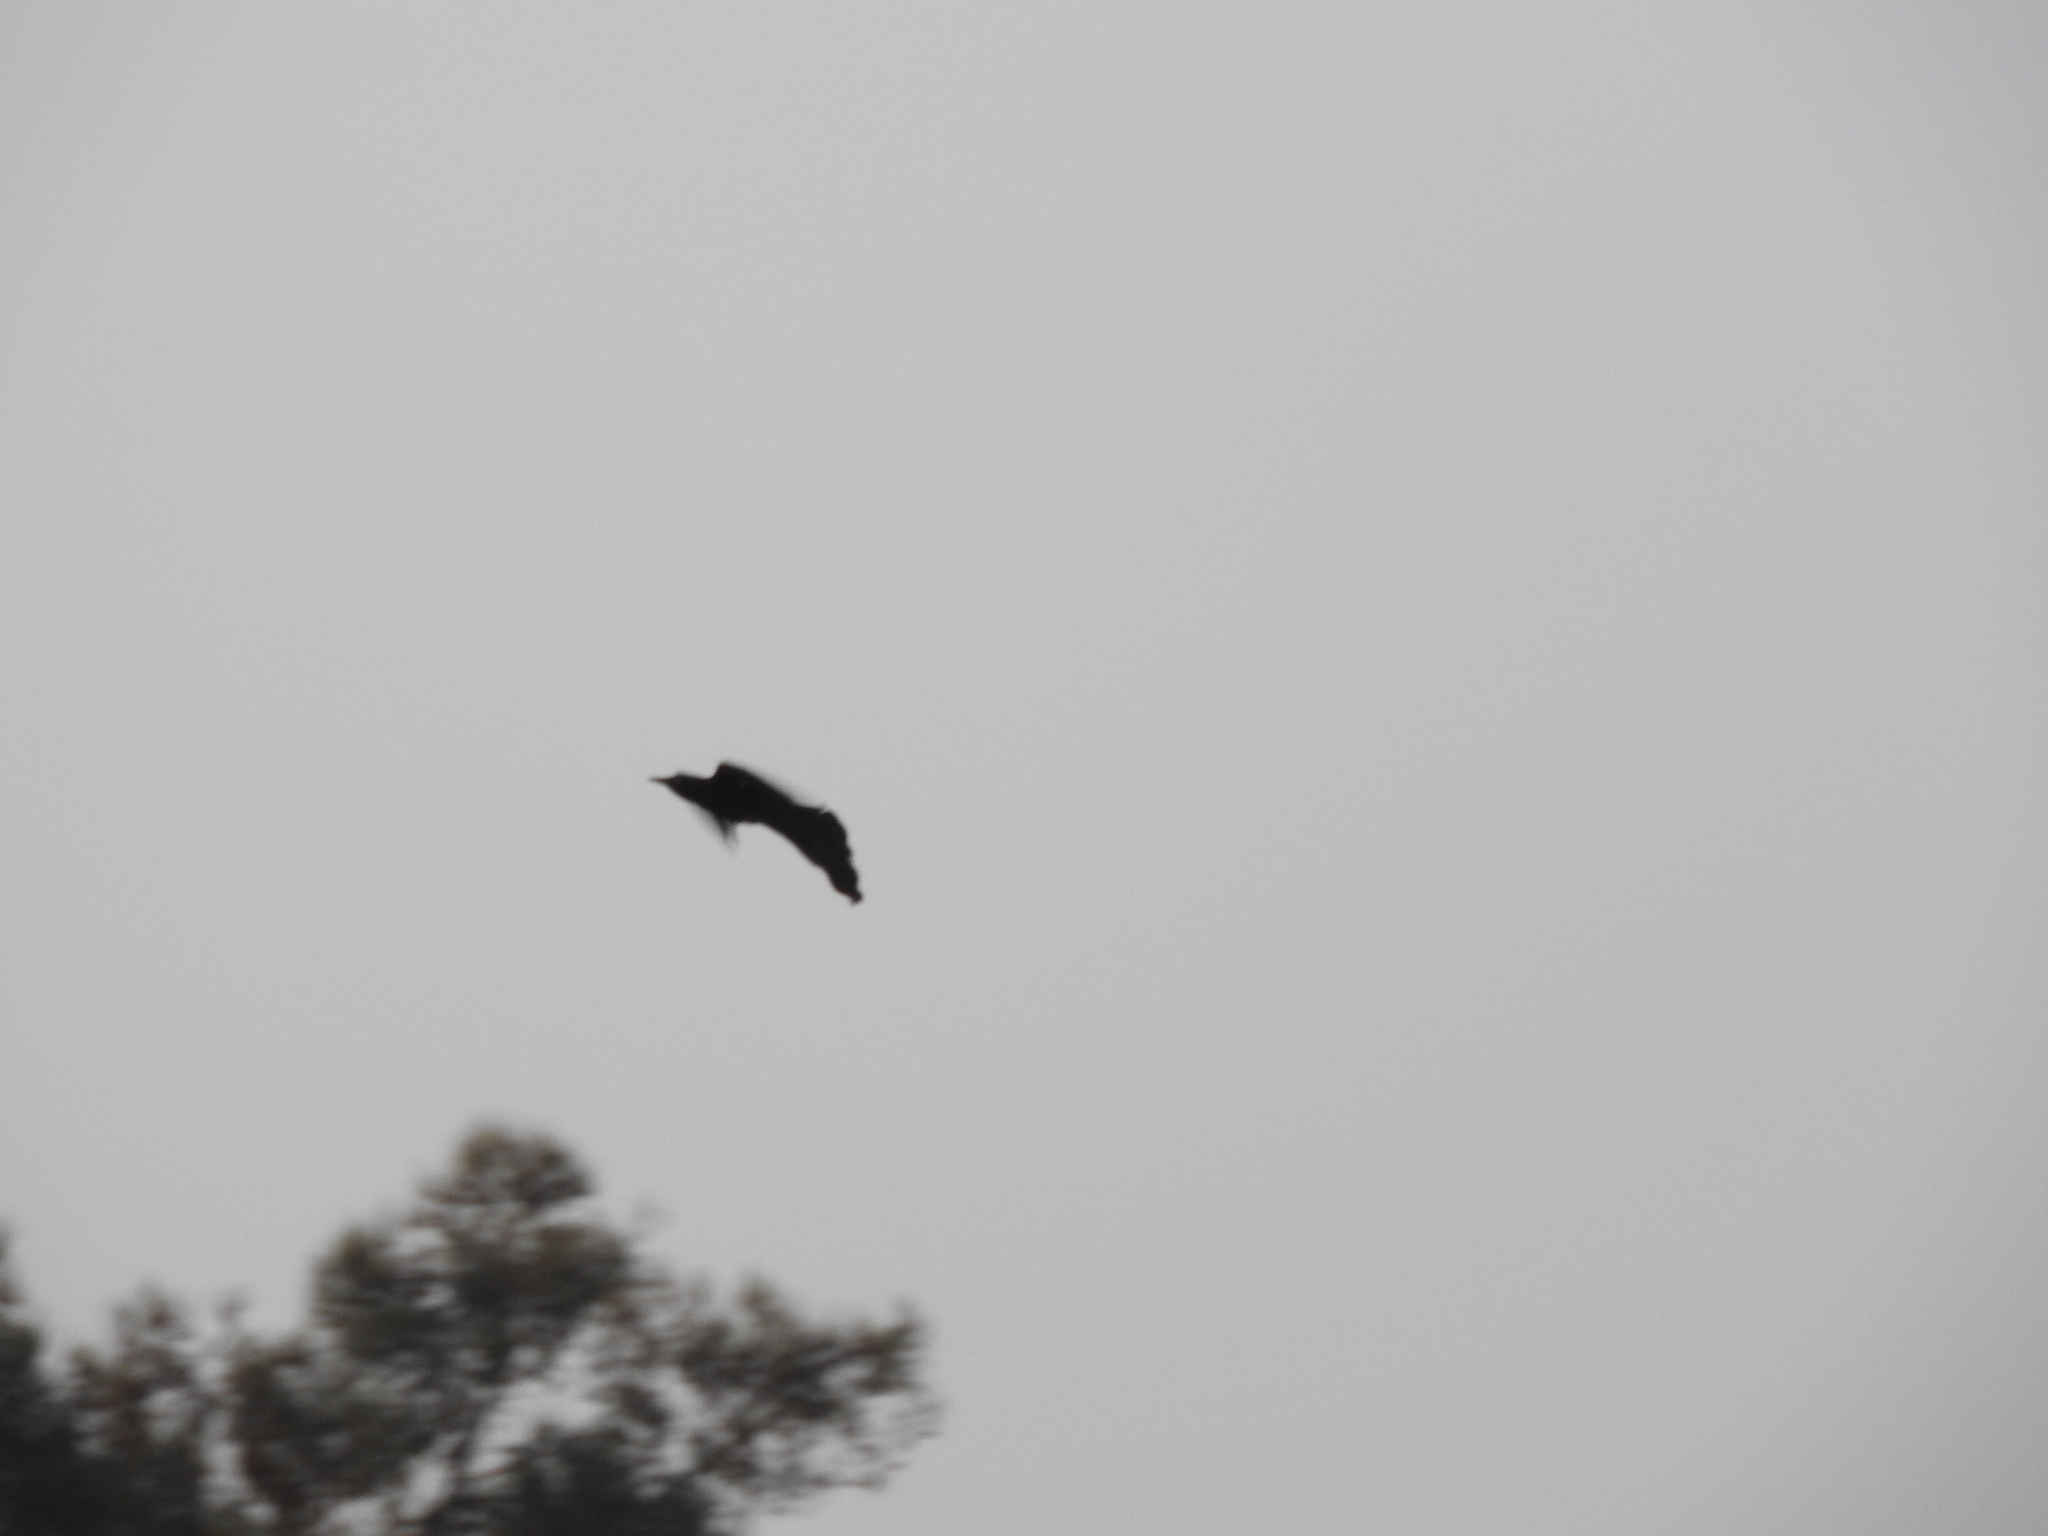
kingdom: Animalia
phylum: Chordata
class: Aves
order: Passeriformes
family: Icteridae
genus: Quiscalus
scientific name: Quiscalus mexicanus
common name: Great-tailed grackle
